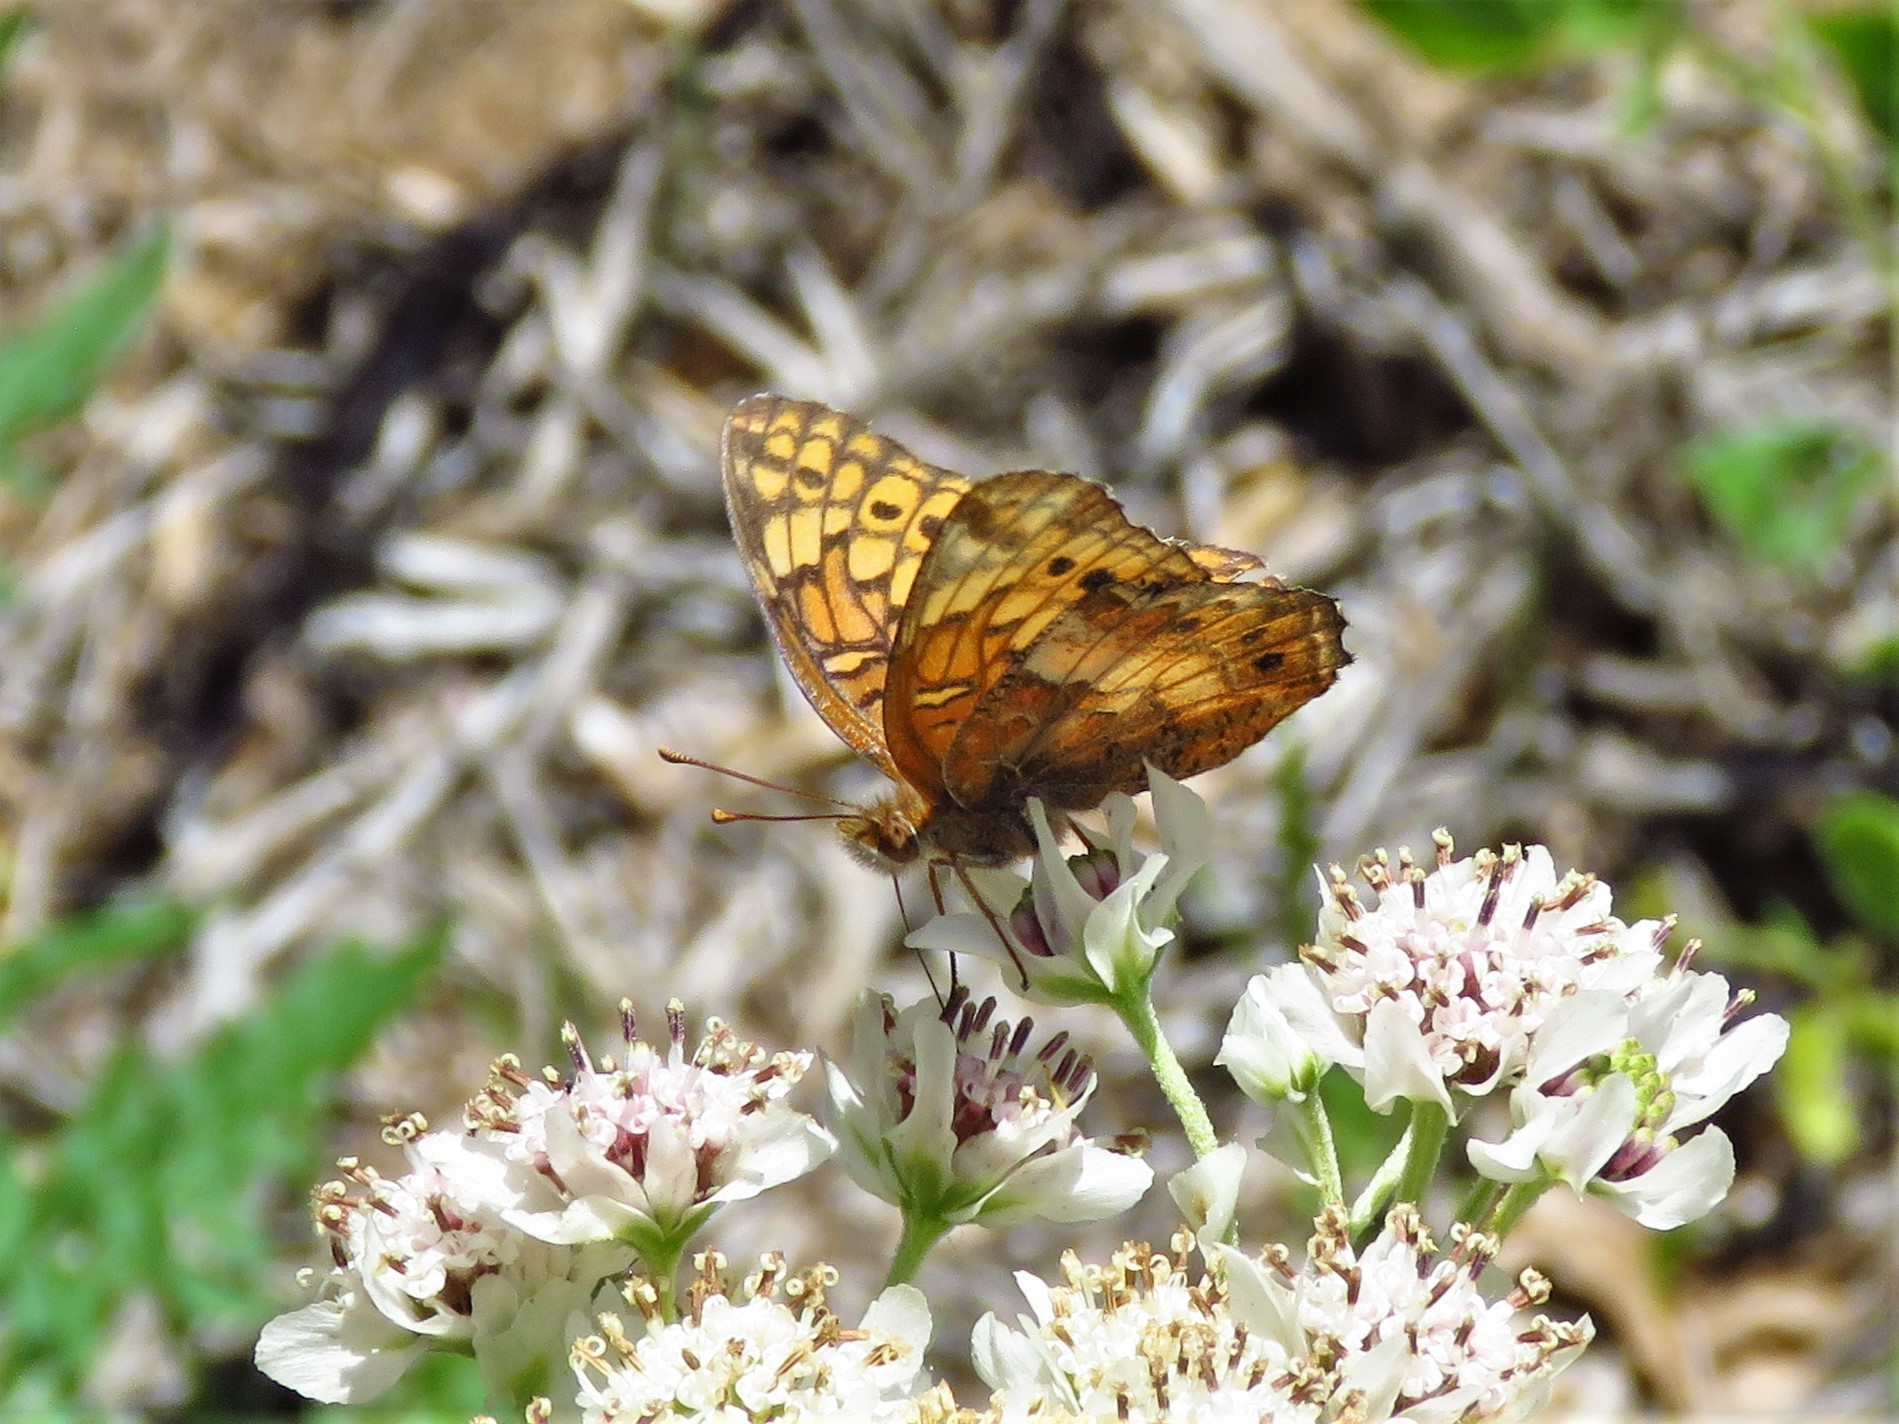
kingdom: Animalia
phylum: Arthropoda
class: Insecta
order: Lepidoptera
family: Nymphalidae
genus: Euptoieta
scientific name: Euptoieta claudia
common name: Variegated fritillary
